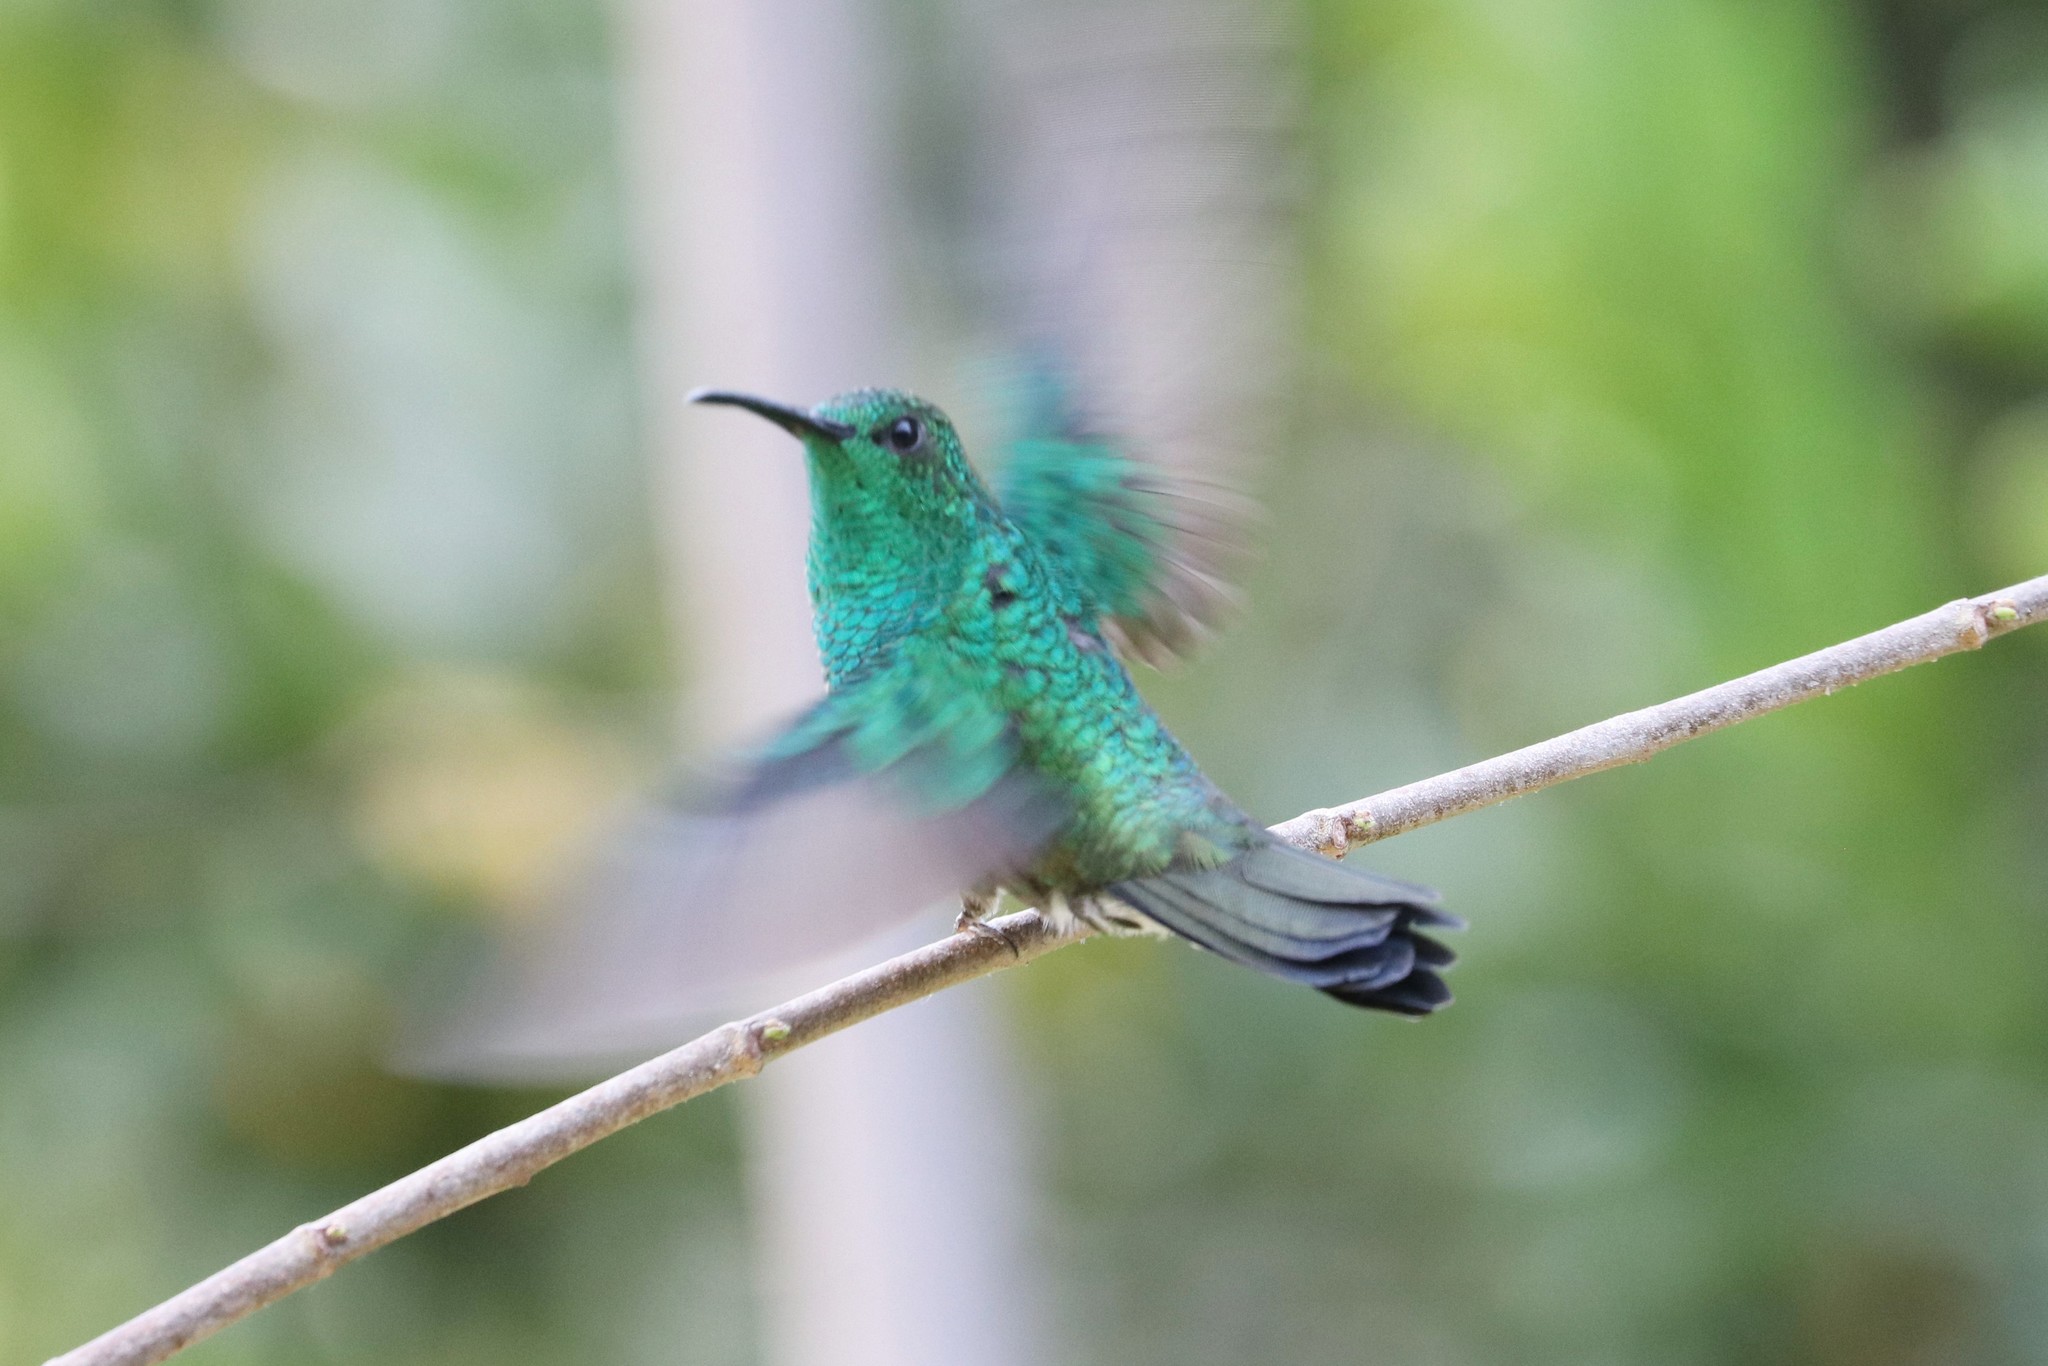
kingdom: Animalia
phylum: Chordata
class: Aves
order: Apodiformes
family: Trochilidae
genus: Chalybura
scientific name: Chalybura buffonii
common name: White-vented plumeleteer
